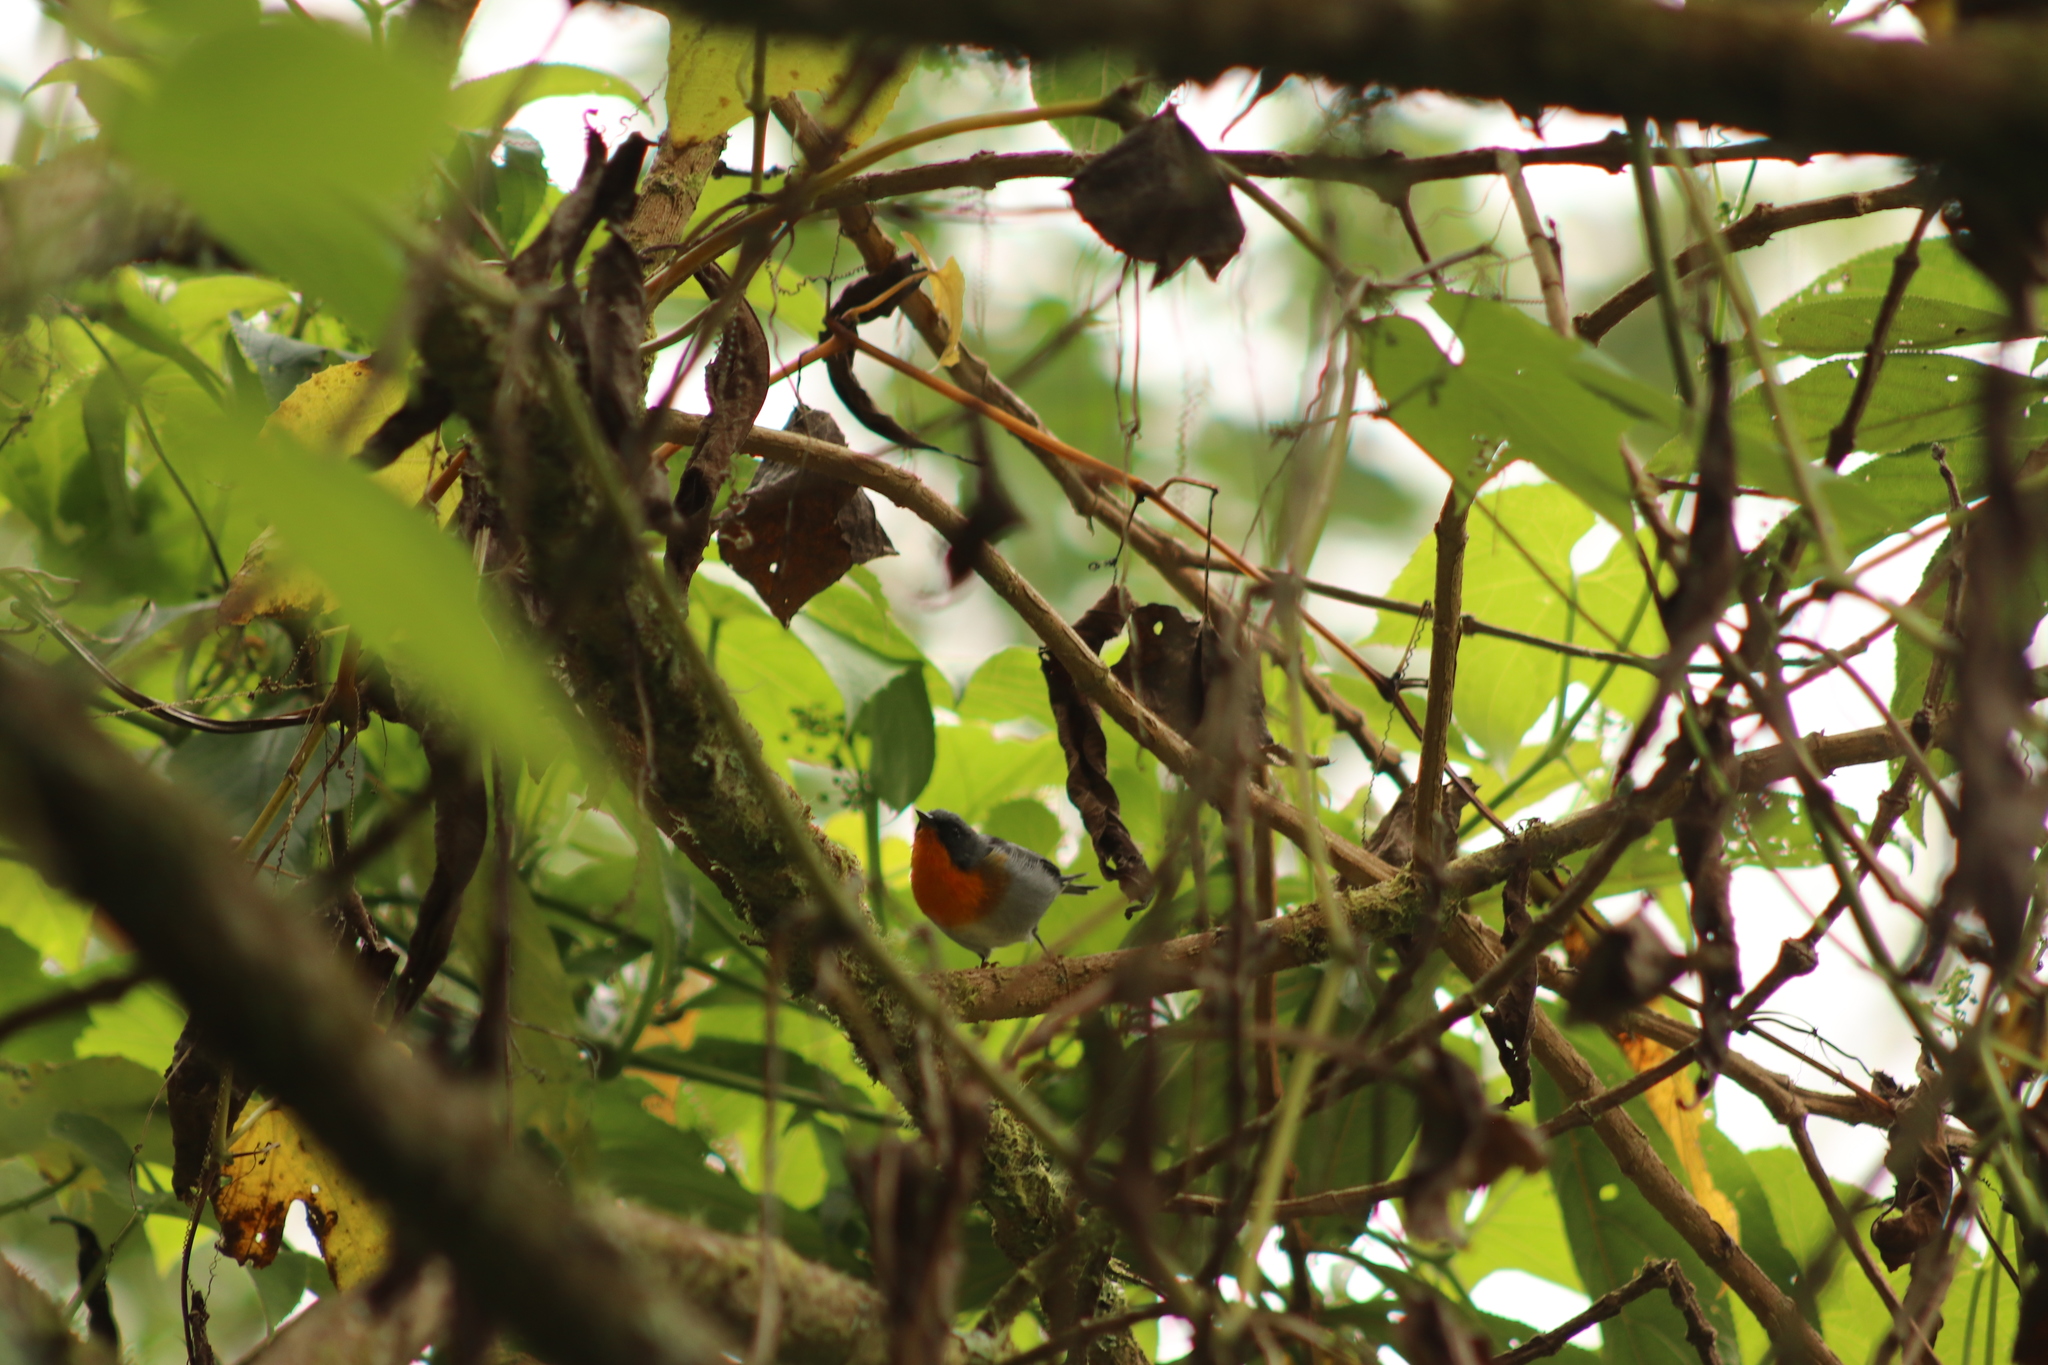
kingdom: Animalia
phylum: Chordata
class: Aves
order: Passeriformes
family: Parulidae
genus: Oreothlypis
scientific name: Oreothlypis gutturalis
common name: Flame-throated warbler
